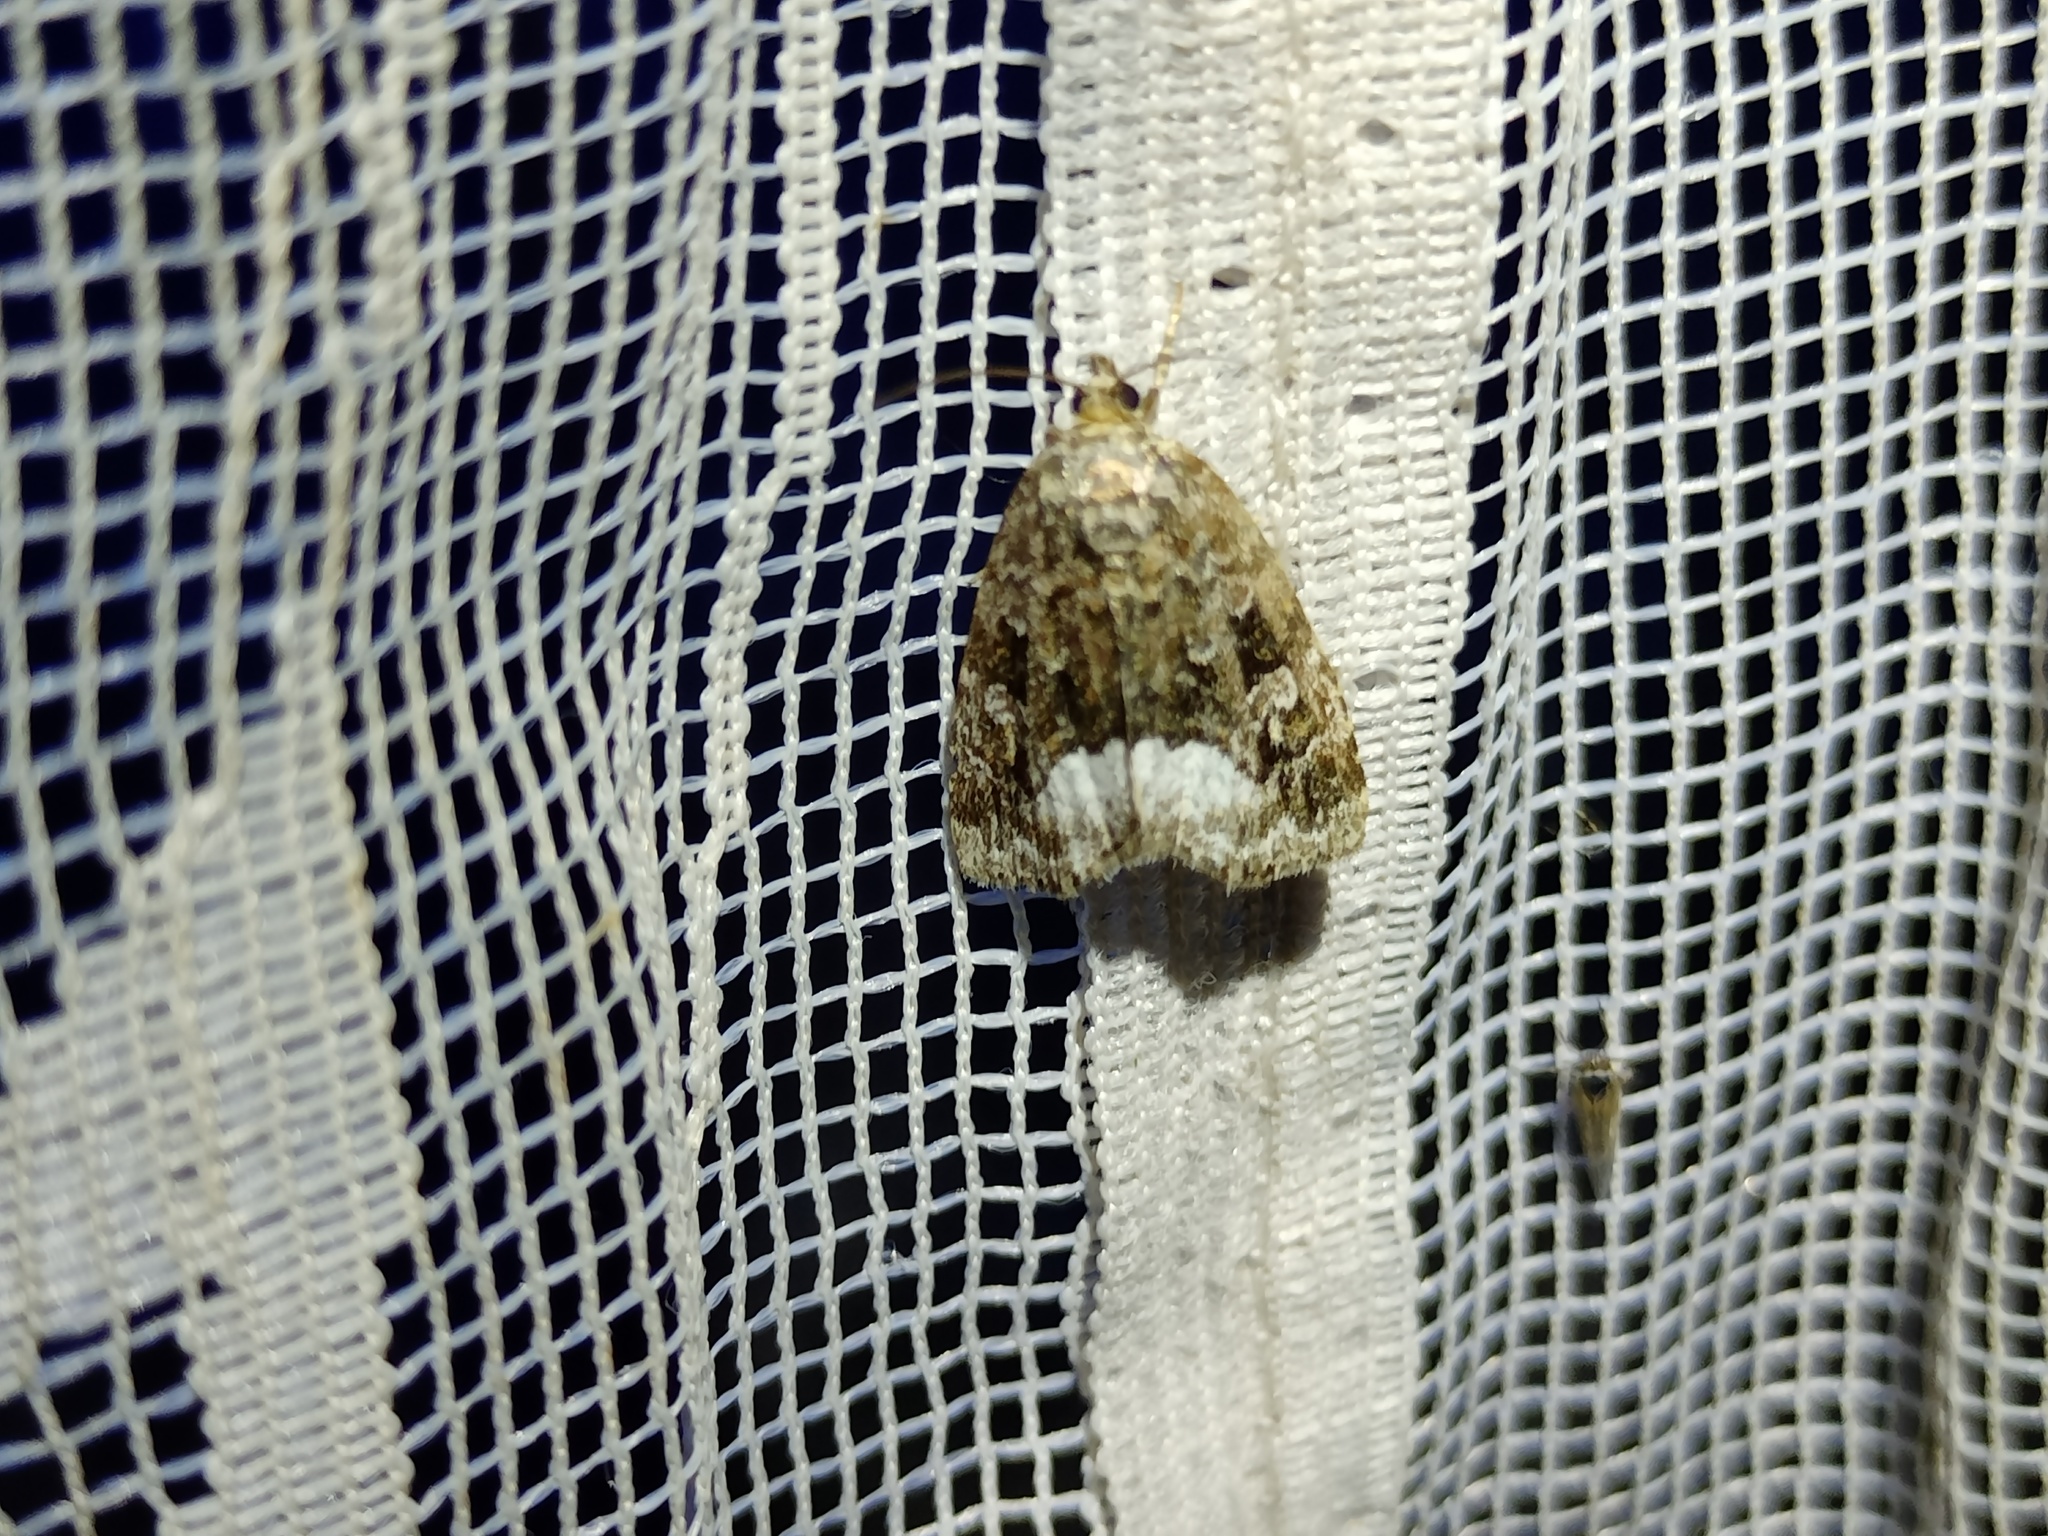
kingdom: Animalia
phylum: Arthropoda
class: Insecta
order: Lepidoptera
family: Noctuidae
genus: Deltote
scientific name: Deltote pygarga
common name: Marbled white spot
